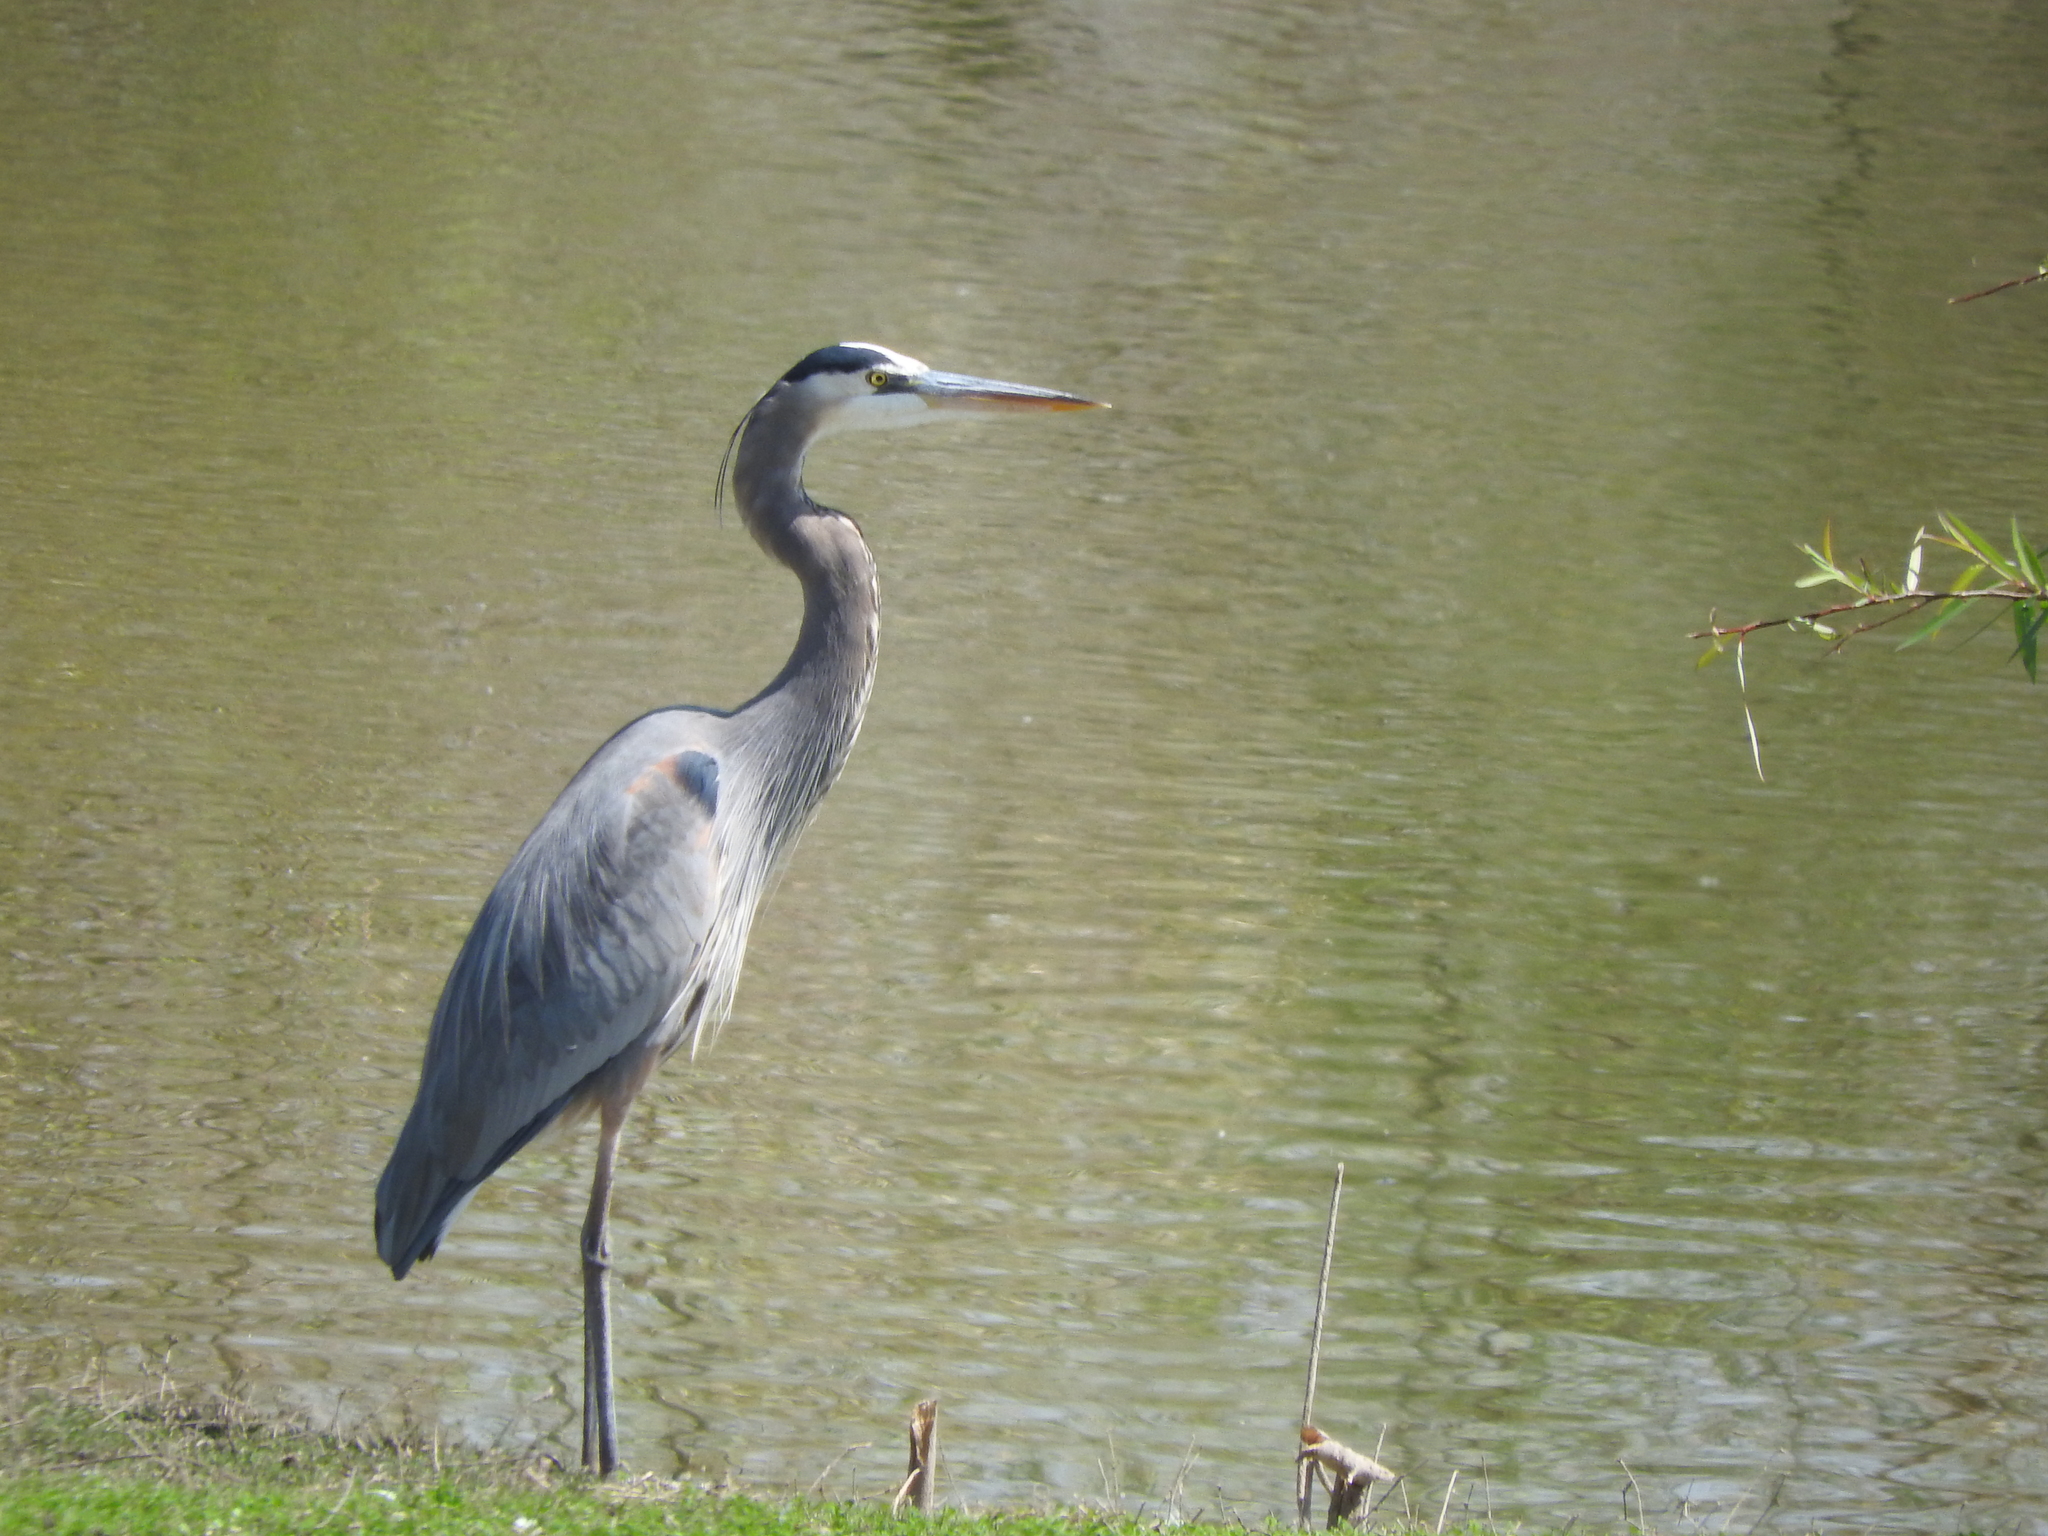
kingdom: Animalia
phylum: Chordata
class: Aves
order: Pelecaniformes
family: Ardeidae
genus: Ardea
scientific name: Ardea herodias
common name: Great blue heron
